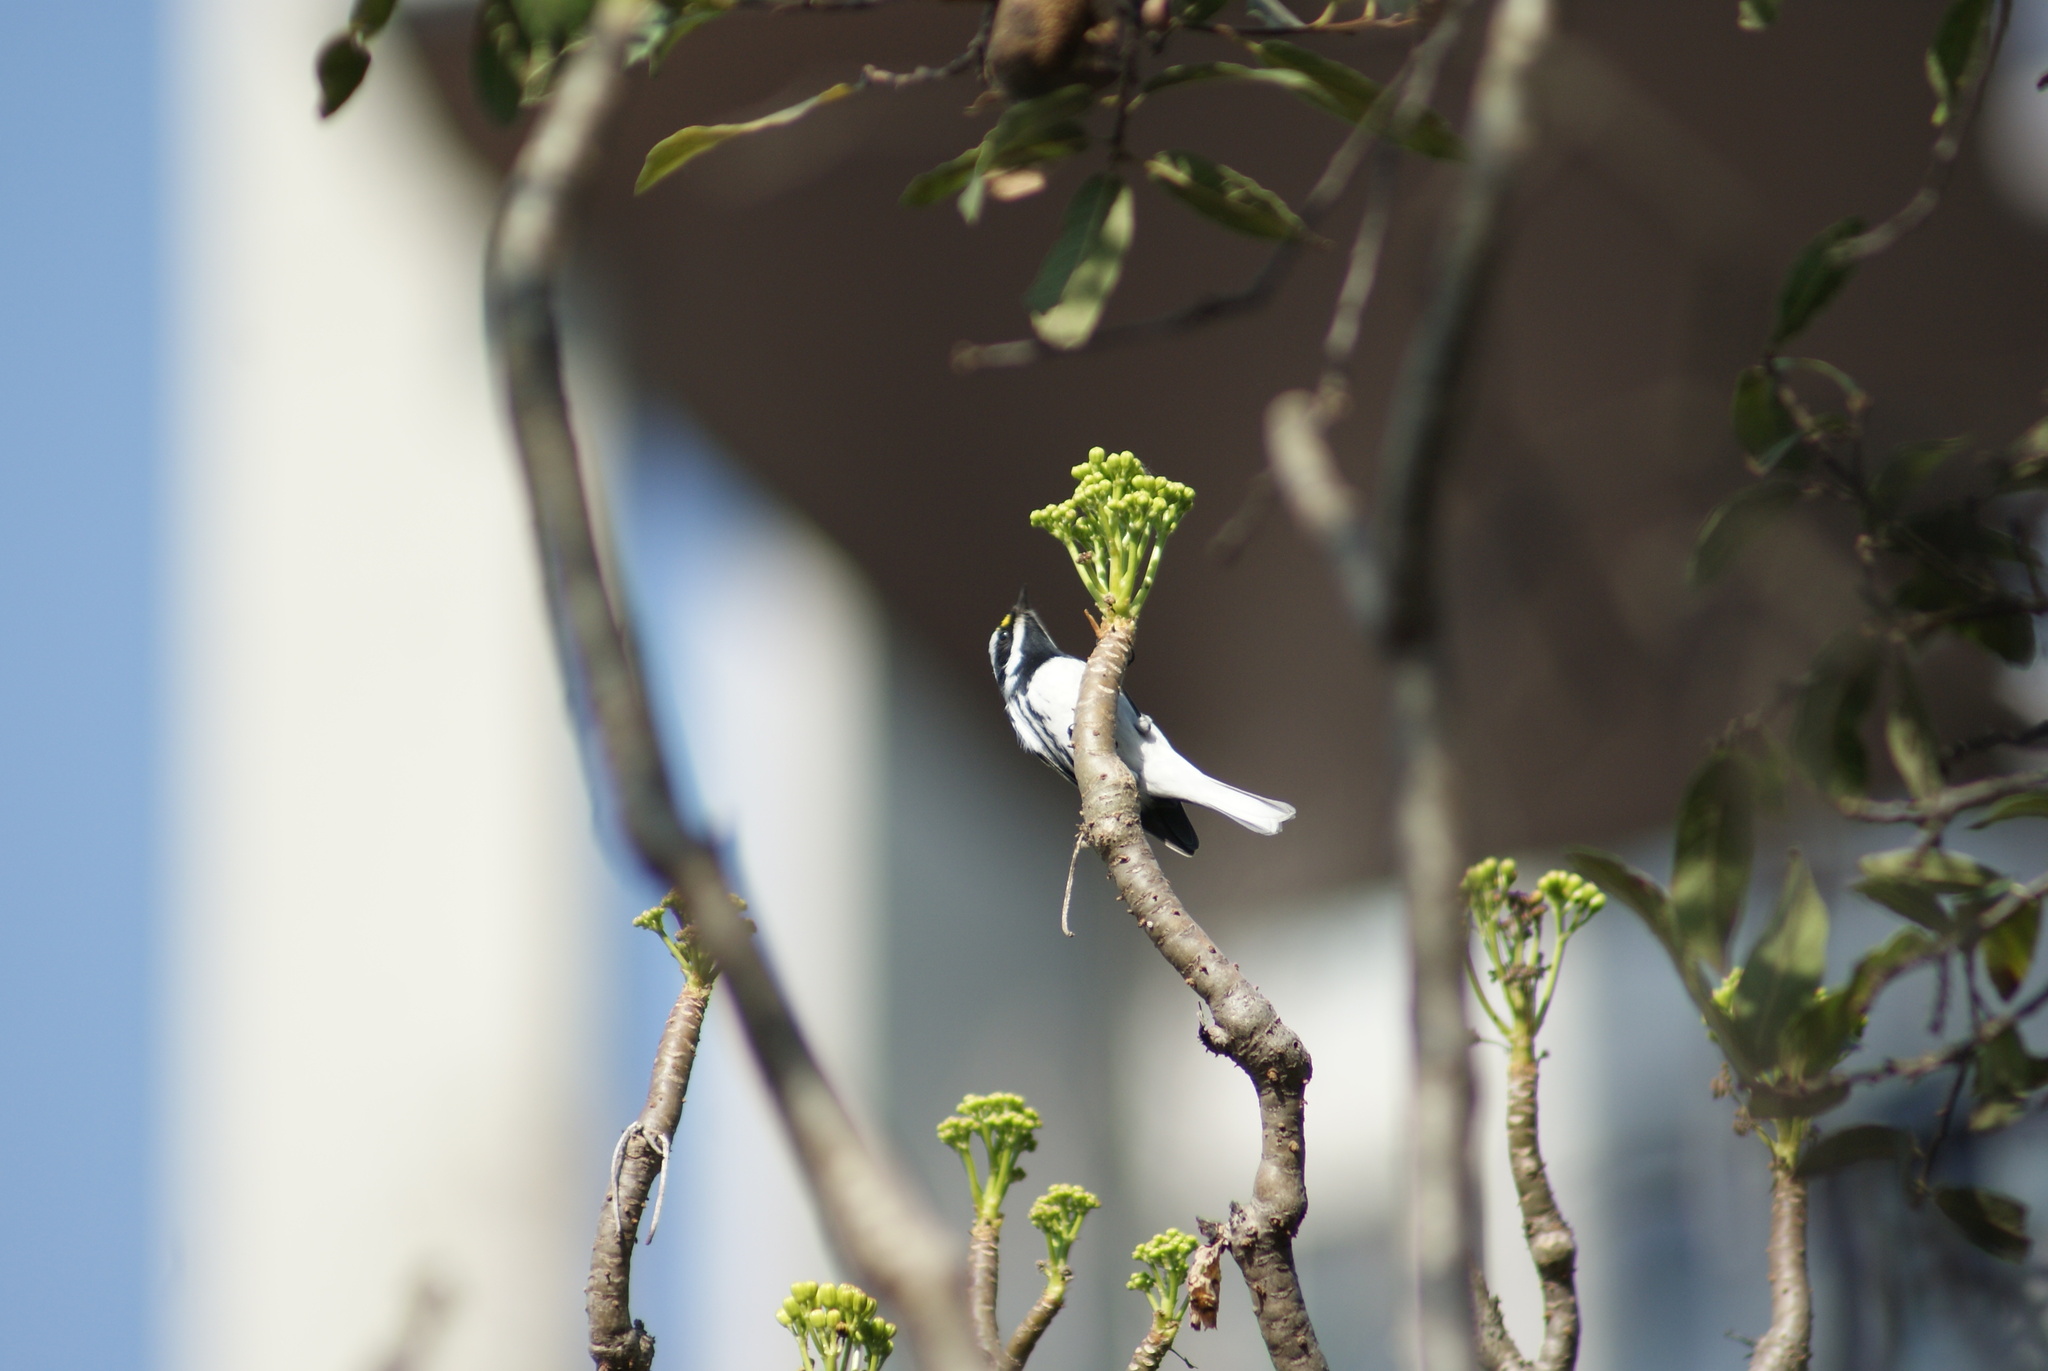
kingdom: Animalia
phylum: Chordata
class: Aves
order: Passeriformes
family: Parulidae
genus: Setophaga
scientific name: Setophaga nigrescens
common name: Black-throated gray warbler
